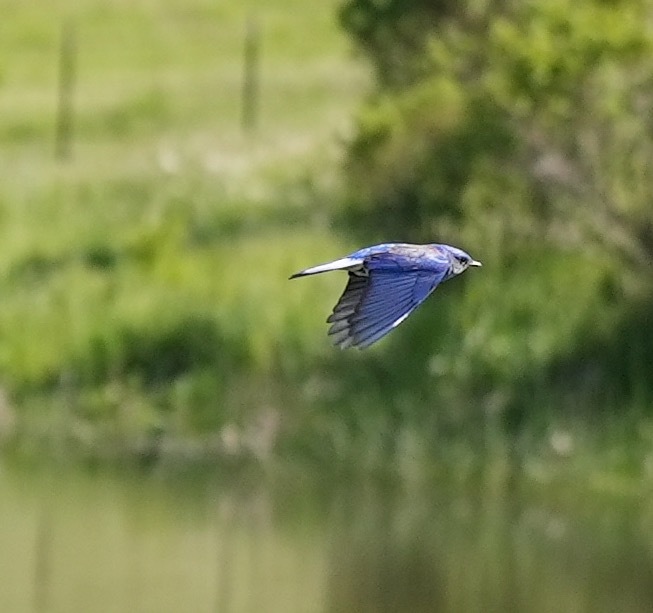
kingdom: Animalia
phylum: Chordata
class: Aves
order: Passeriformes
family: Turdidae
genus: Sialia
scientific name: Sialia mexicana
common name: Western bluebird
